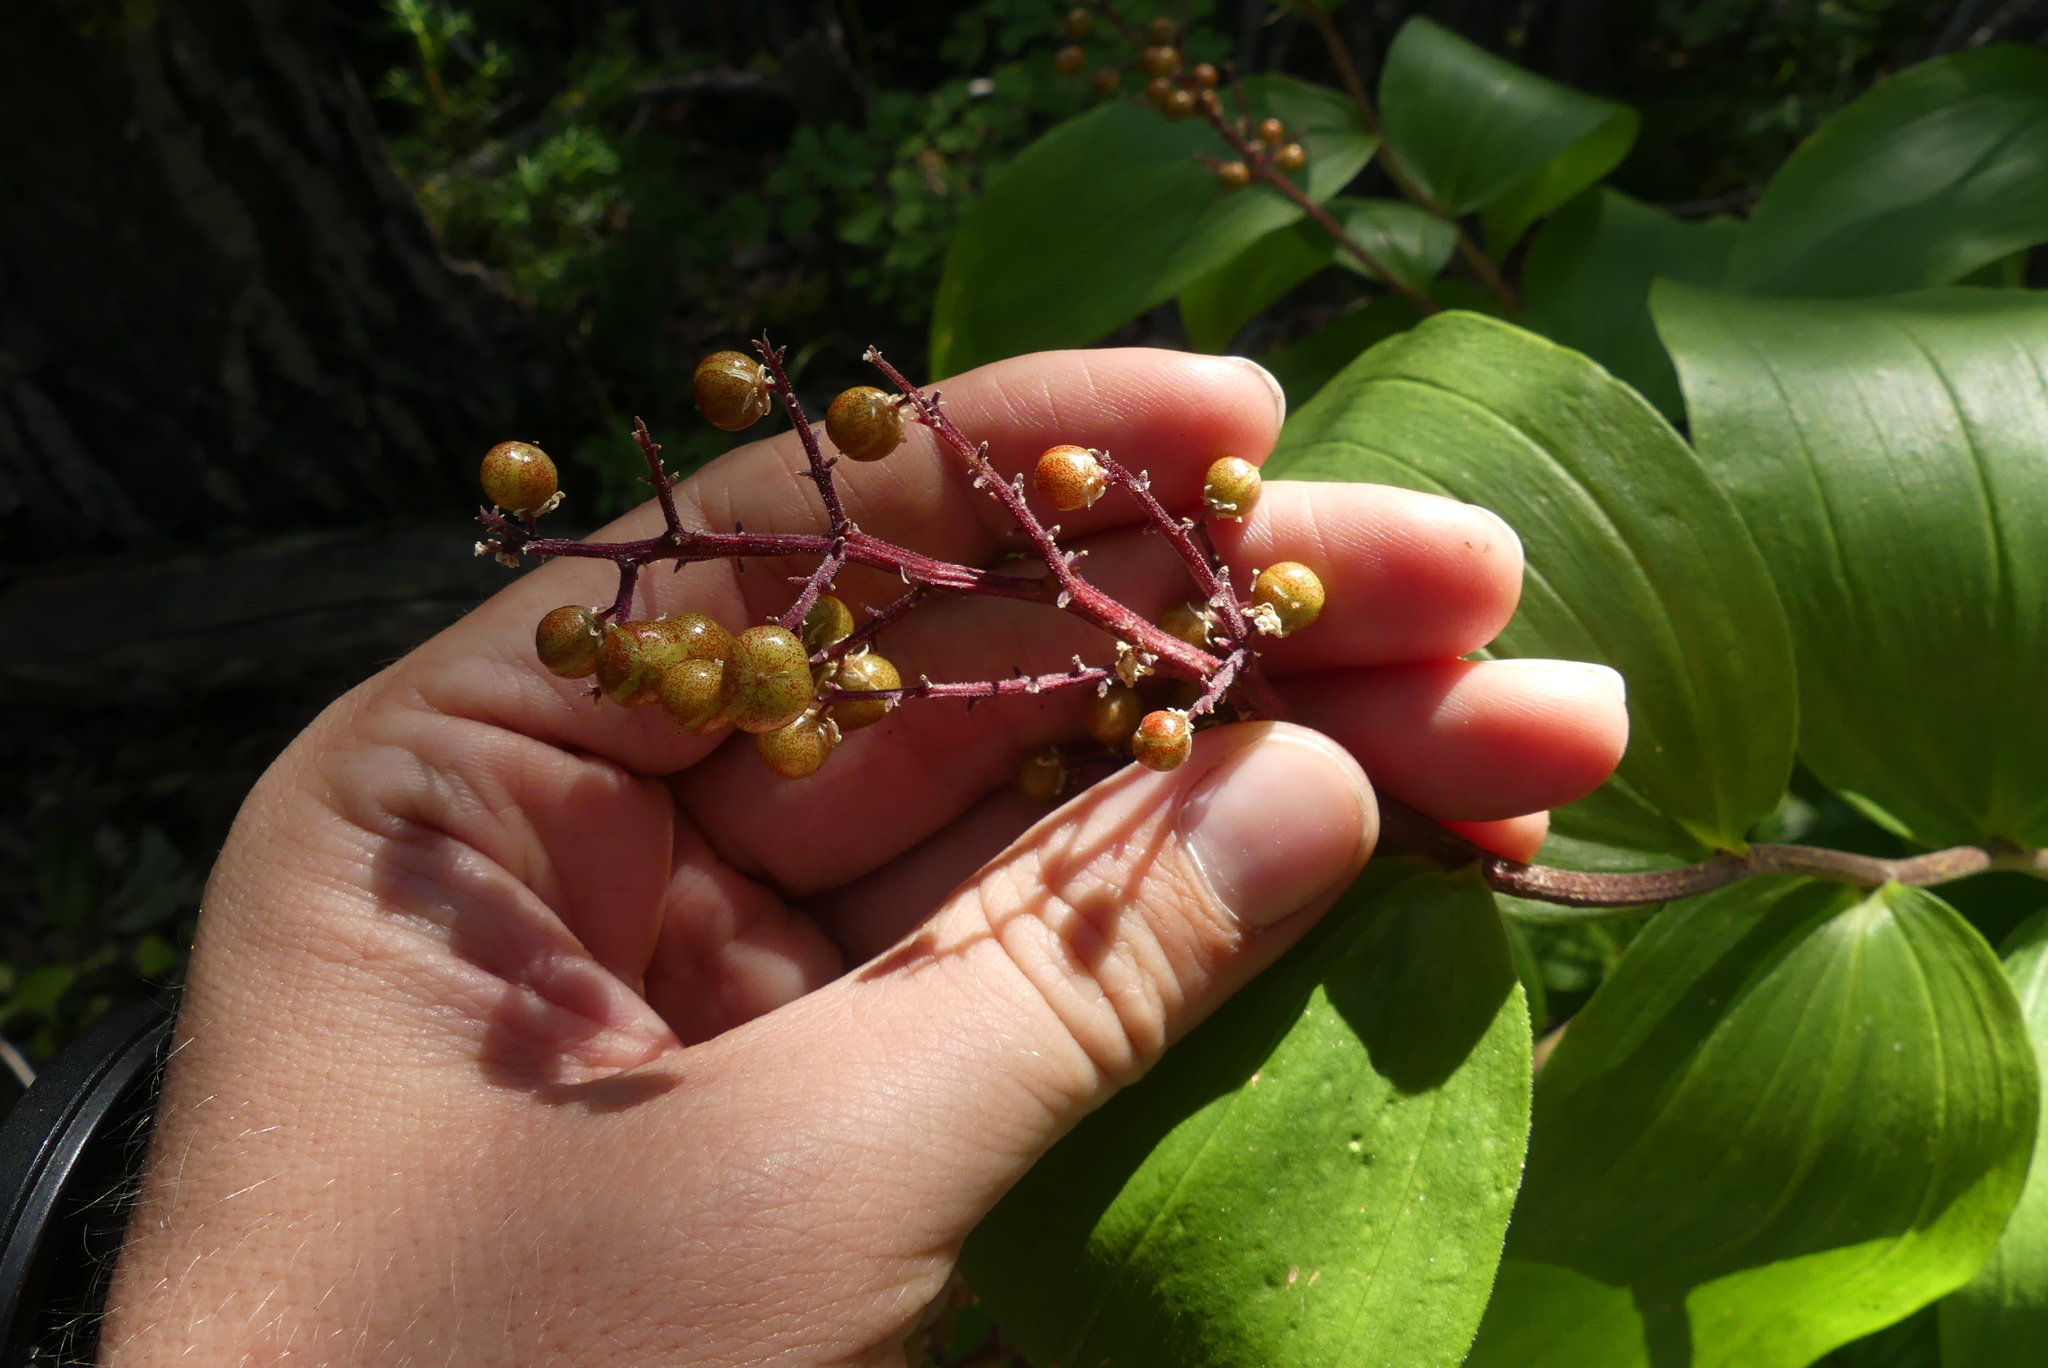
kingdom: Plantae
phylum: Tracheophyta
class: Liliopsida
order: Asparagales
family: Asparagaceae
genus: Maianthemum
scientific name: Maianthemum racemosum
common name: False spikenard
